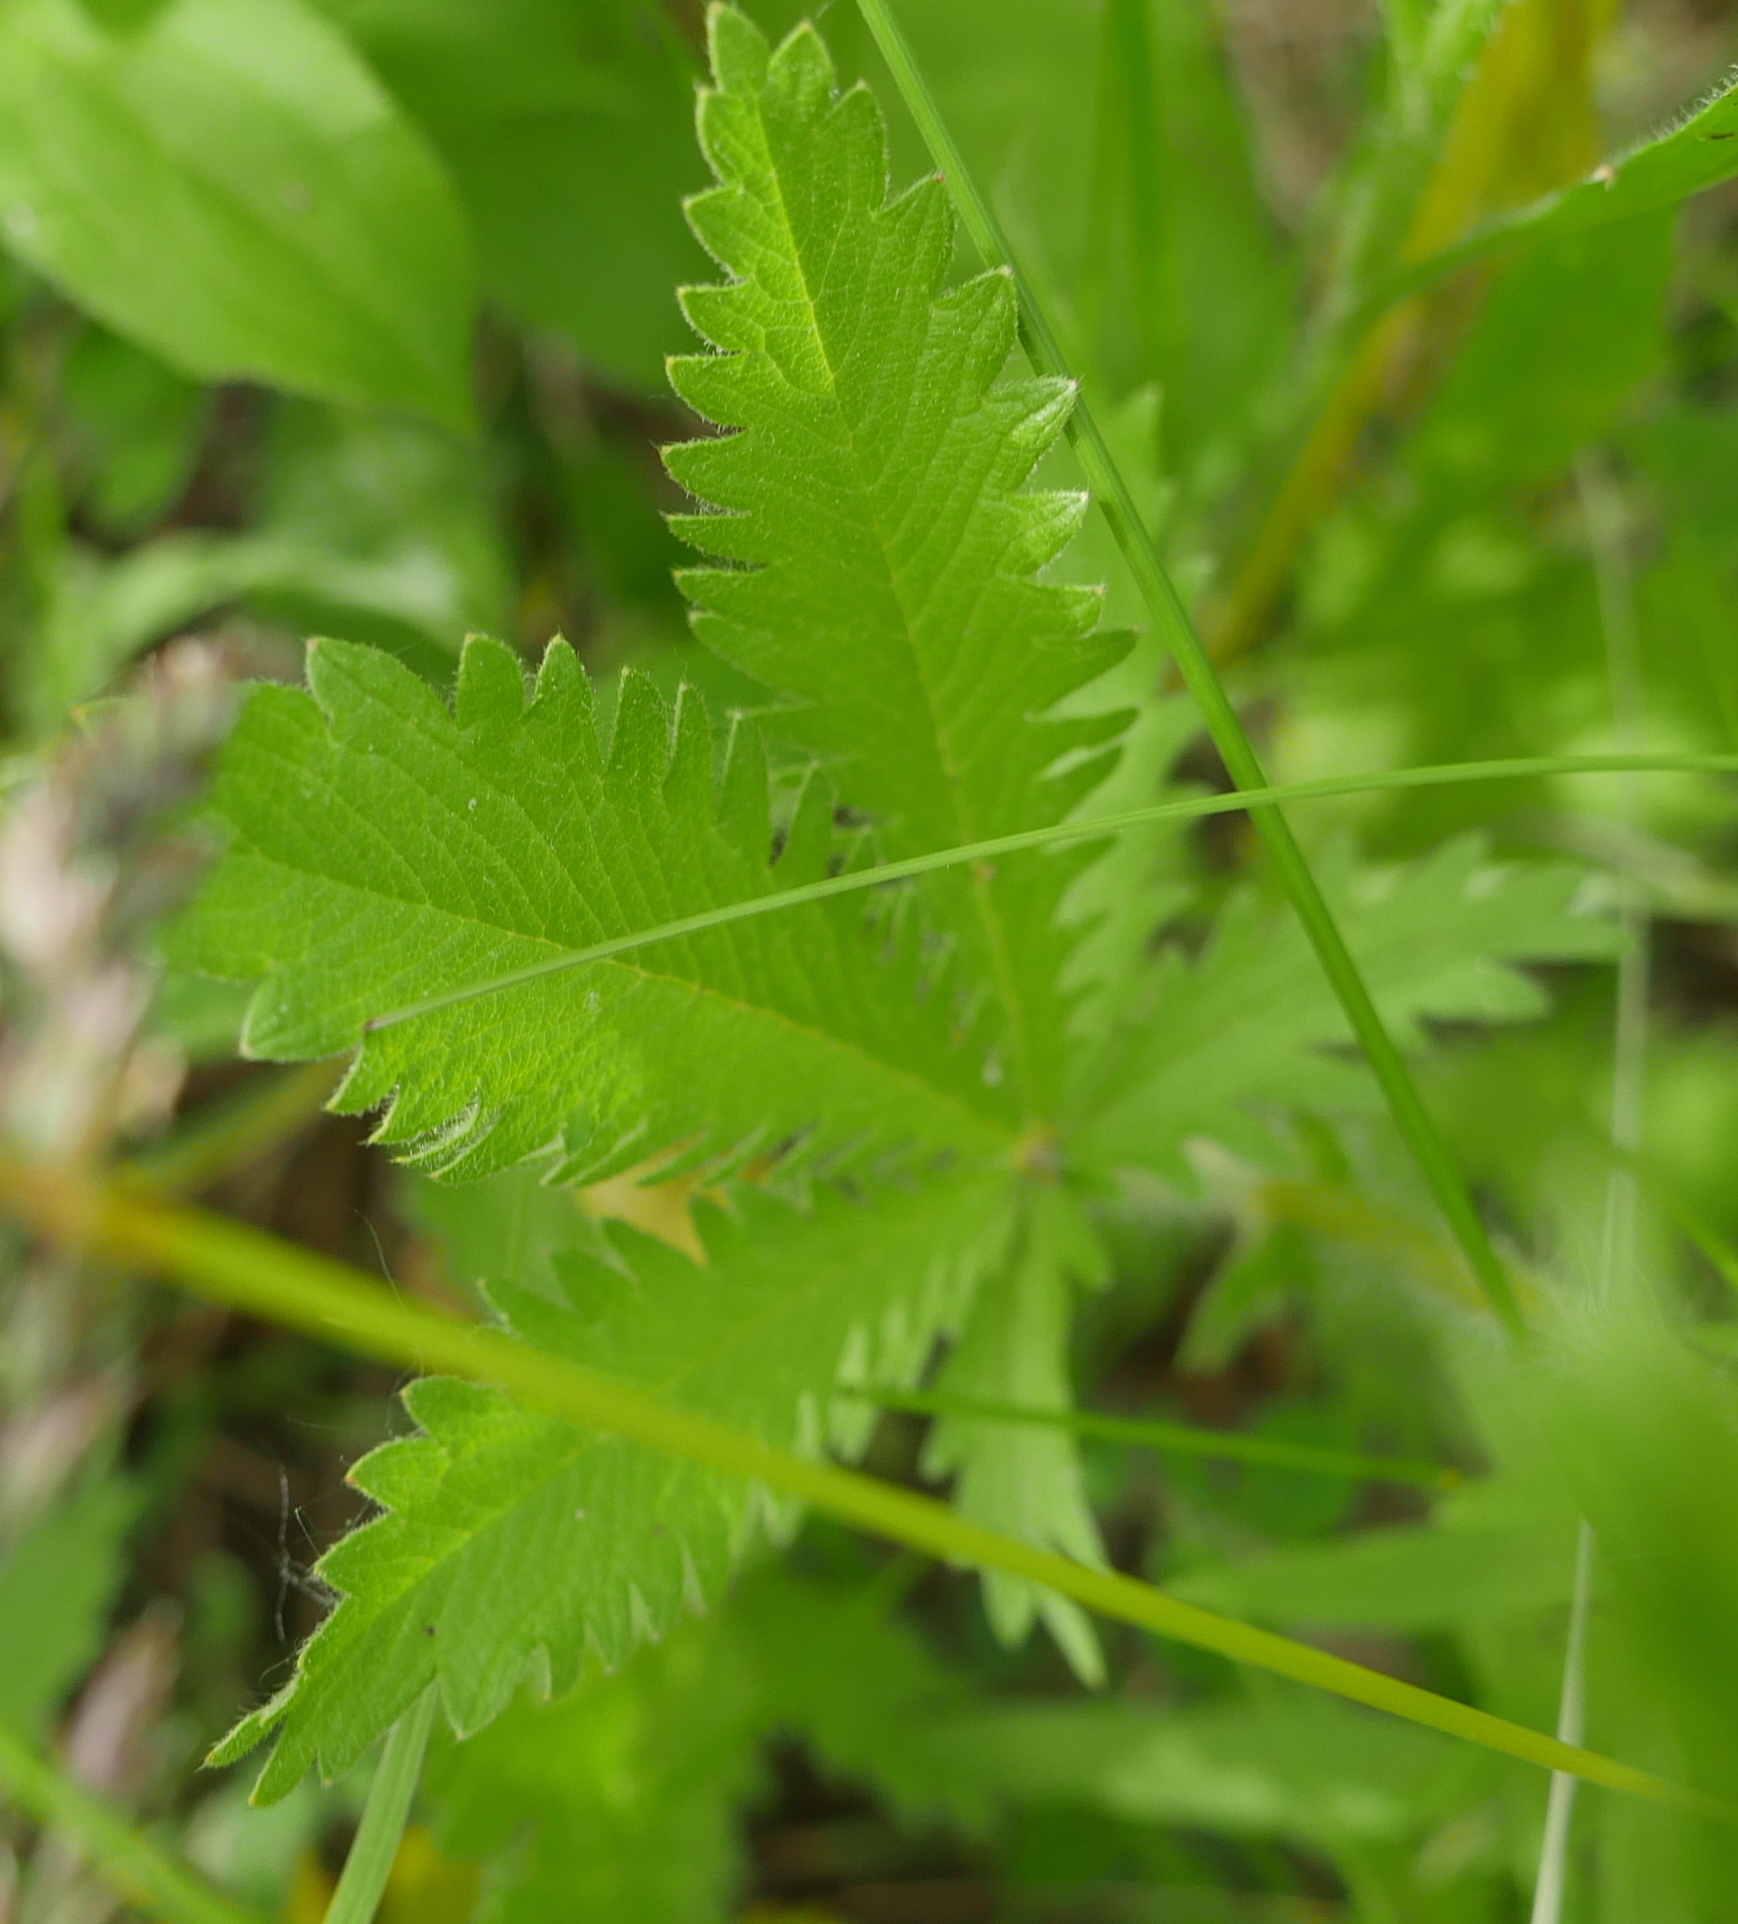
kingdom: Plantae
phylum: Tracheophyta
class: Magnoliopsida
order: Rosales
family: Rosaceae
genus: Potentilla
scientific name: Potentilla recta
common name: Sulphur cinquefoil
